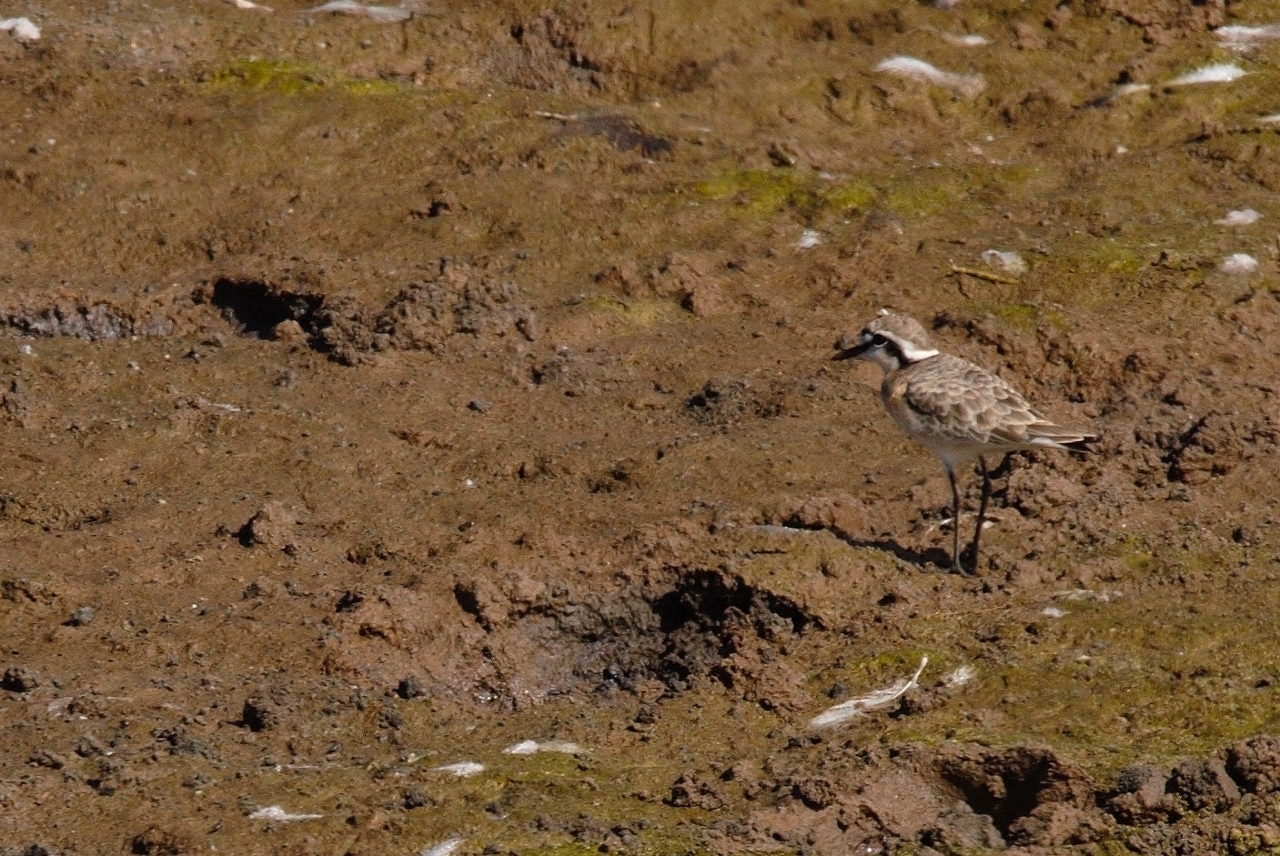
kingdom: Animalia
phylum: Chordata
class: Aves
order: Charadriiformes
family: Charadriidae
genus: Anarhynchus
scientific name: Anarhynchus
